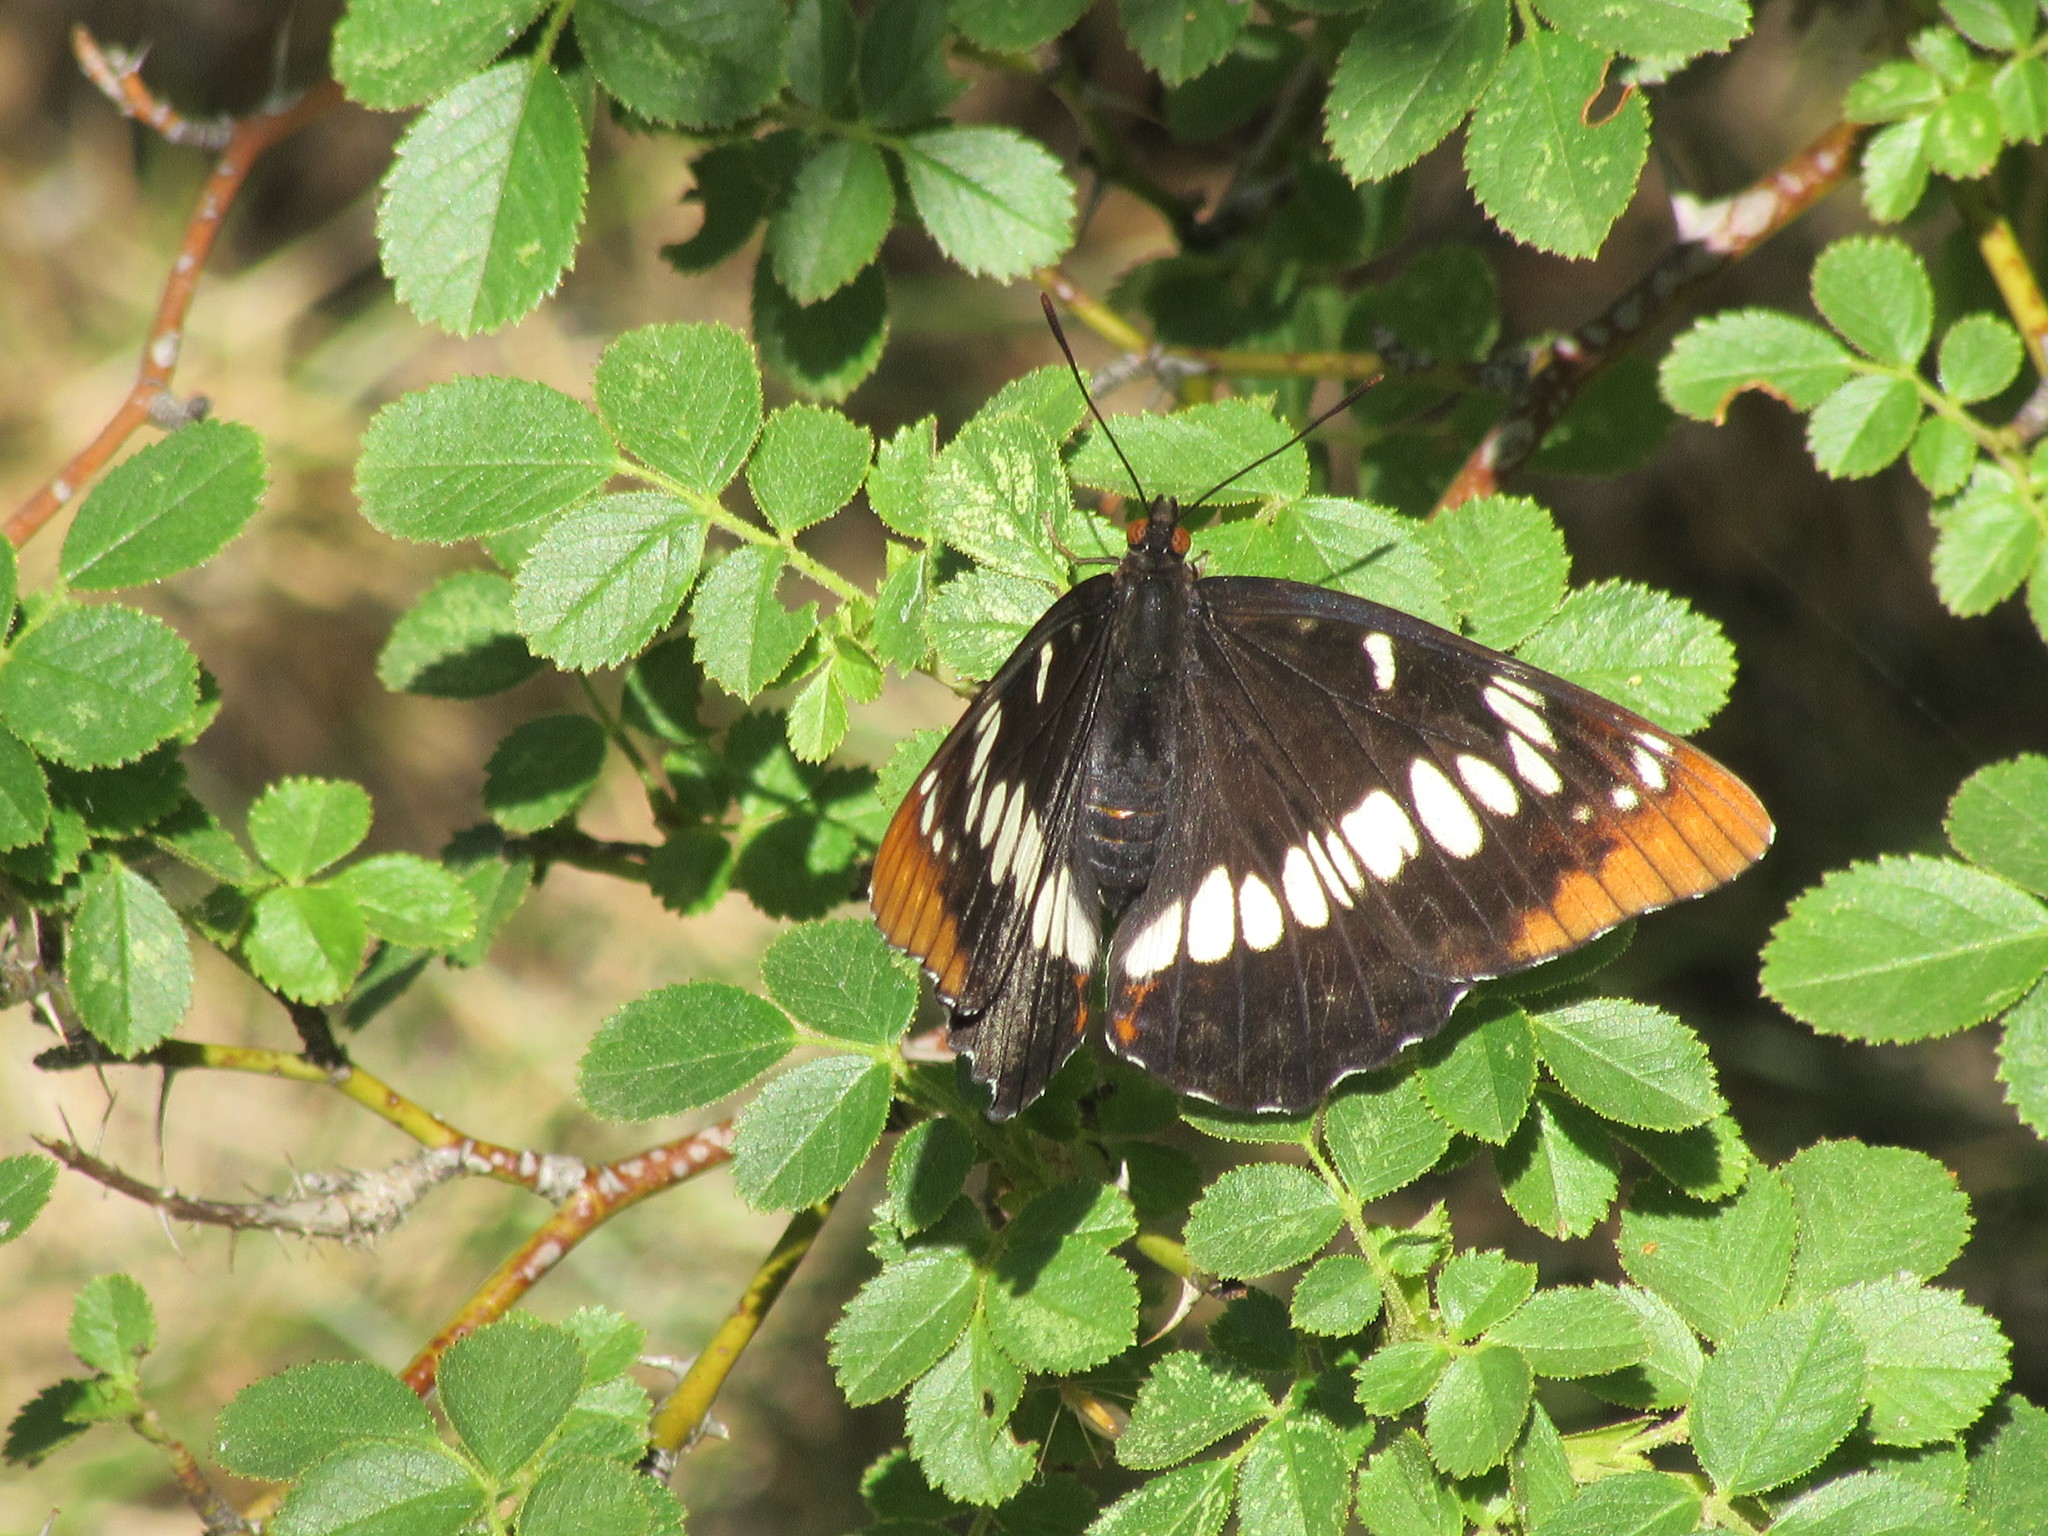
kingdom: Animalia
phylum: Arthropoda
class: Insecta
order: Lepidoptera
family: Nymphalidae
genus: Limenitis
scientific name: Limenitis lorquini
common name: Lorquin's admiral
